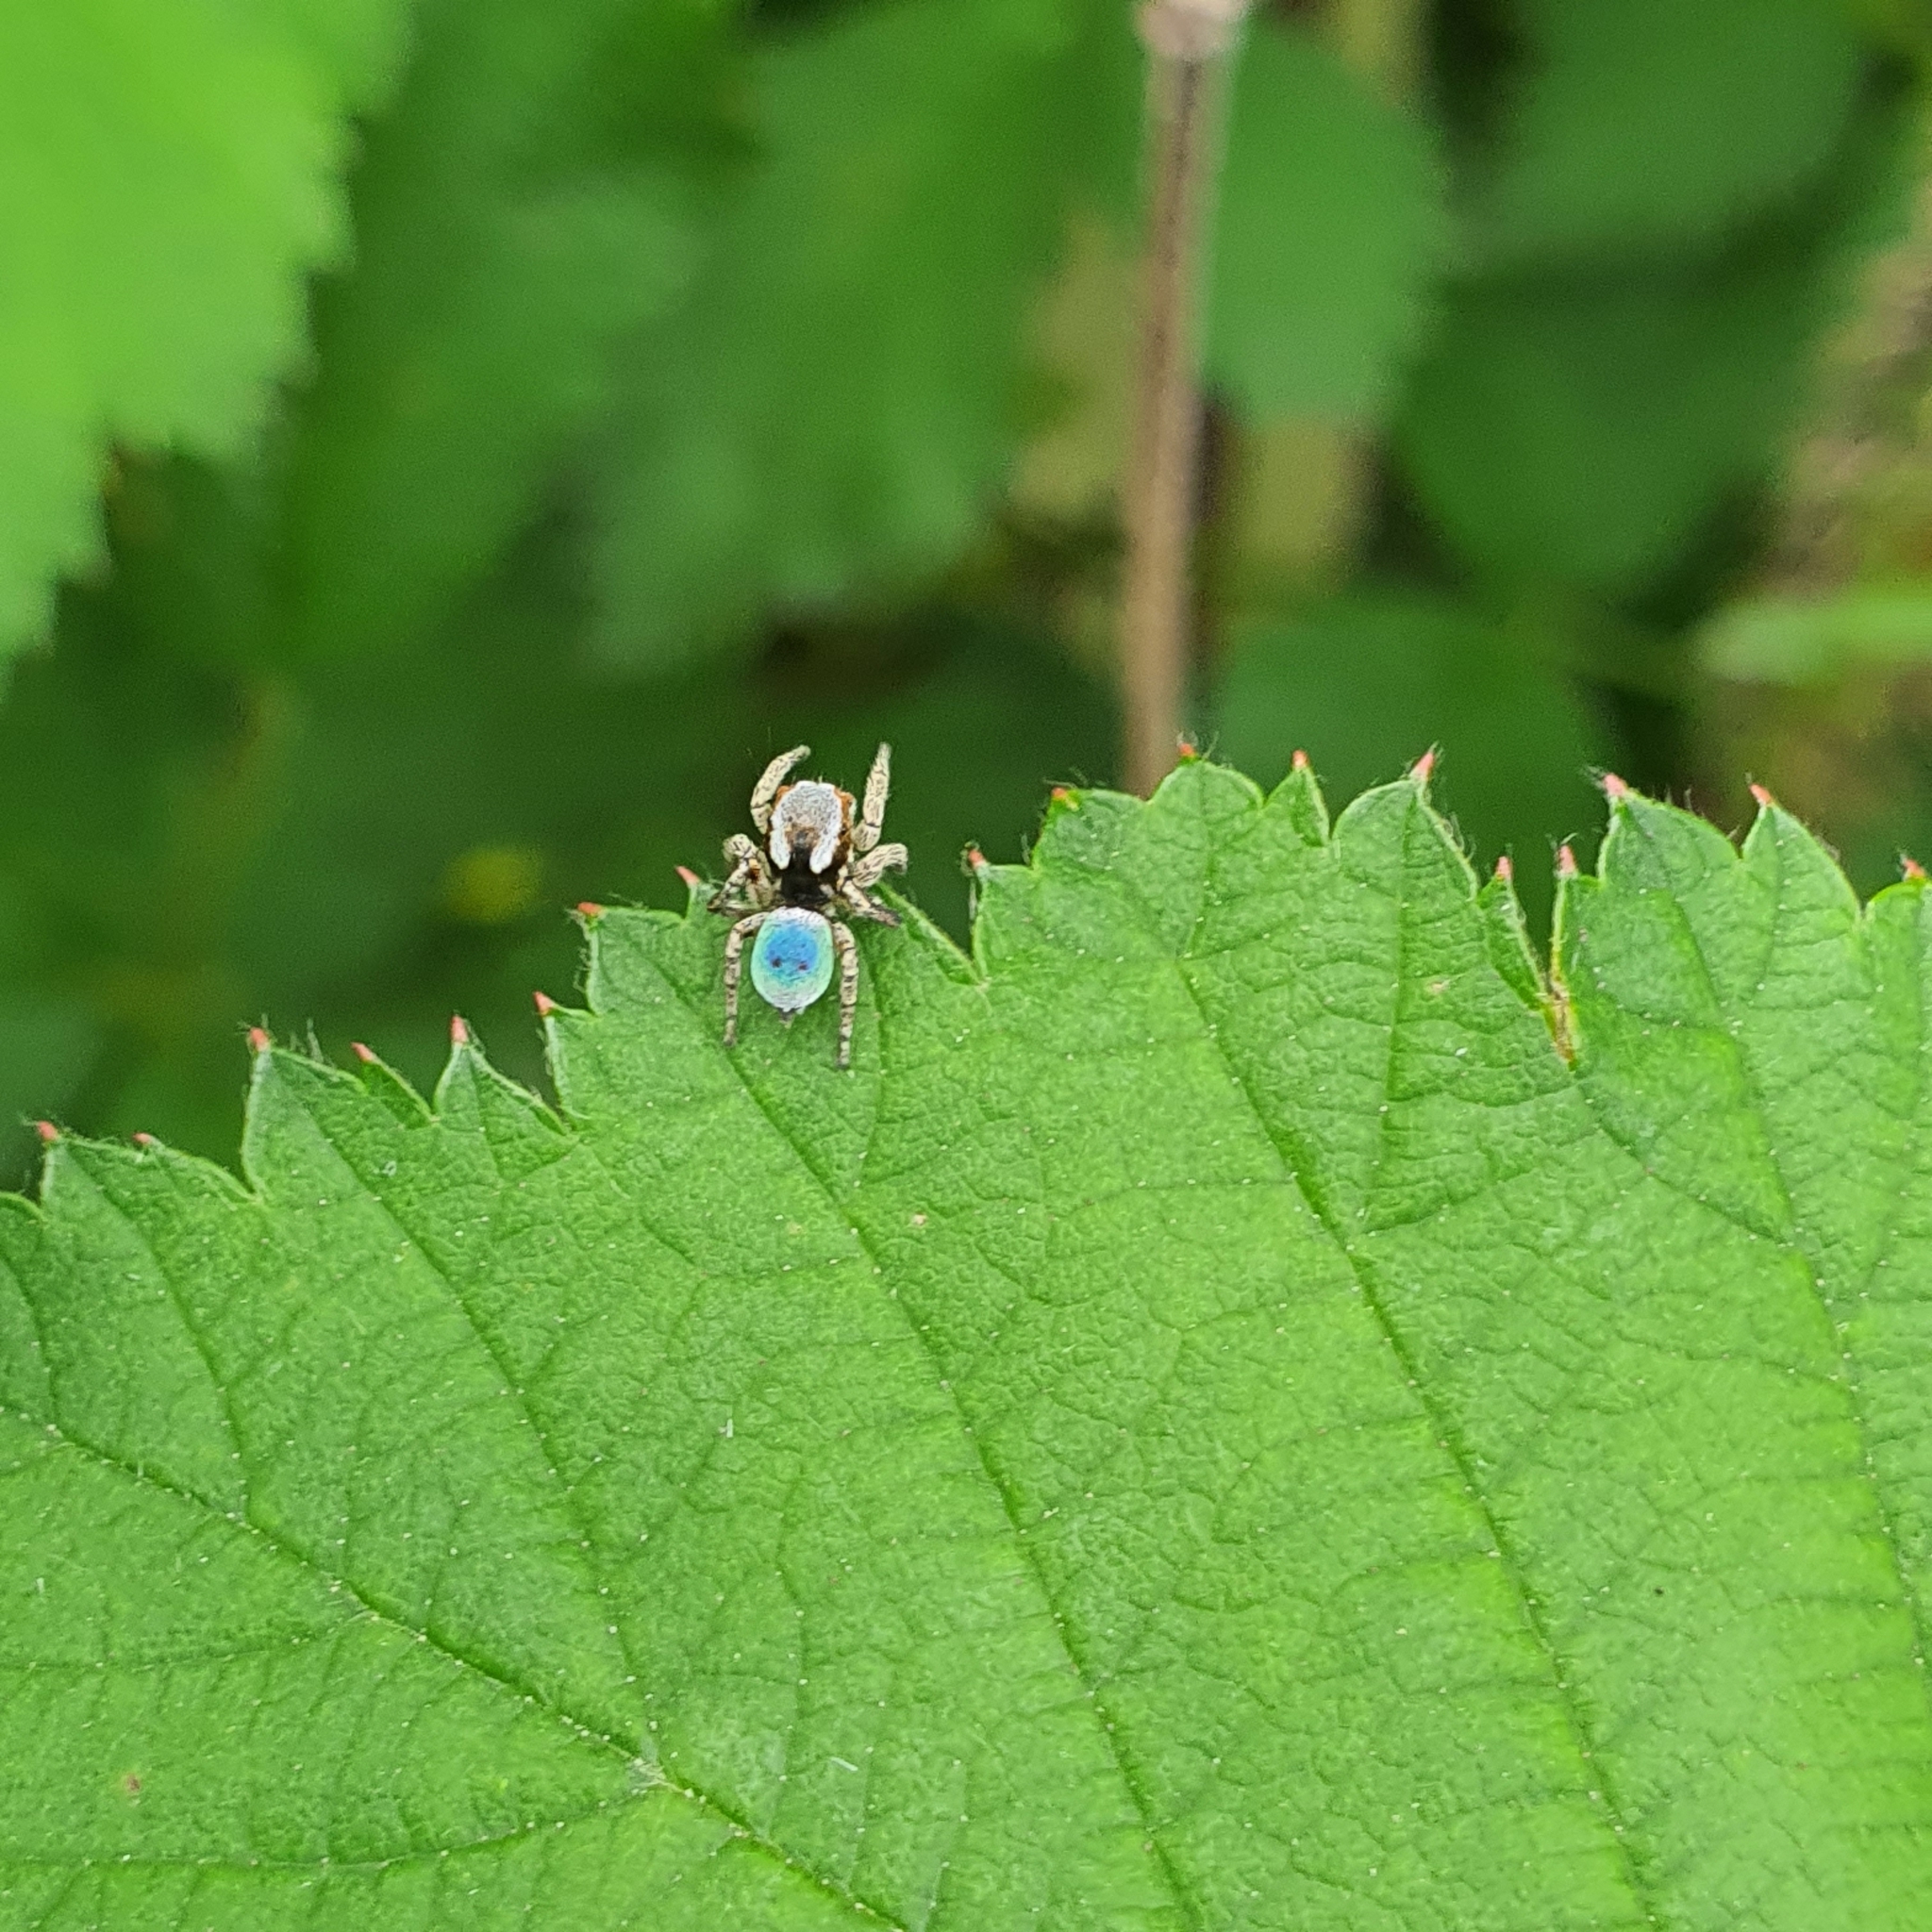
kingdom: Animalia
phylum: Arthropoda
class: Arachnida
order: Araneae
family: Salticidae
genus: Maratus
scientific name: Maratus anomalus
